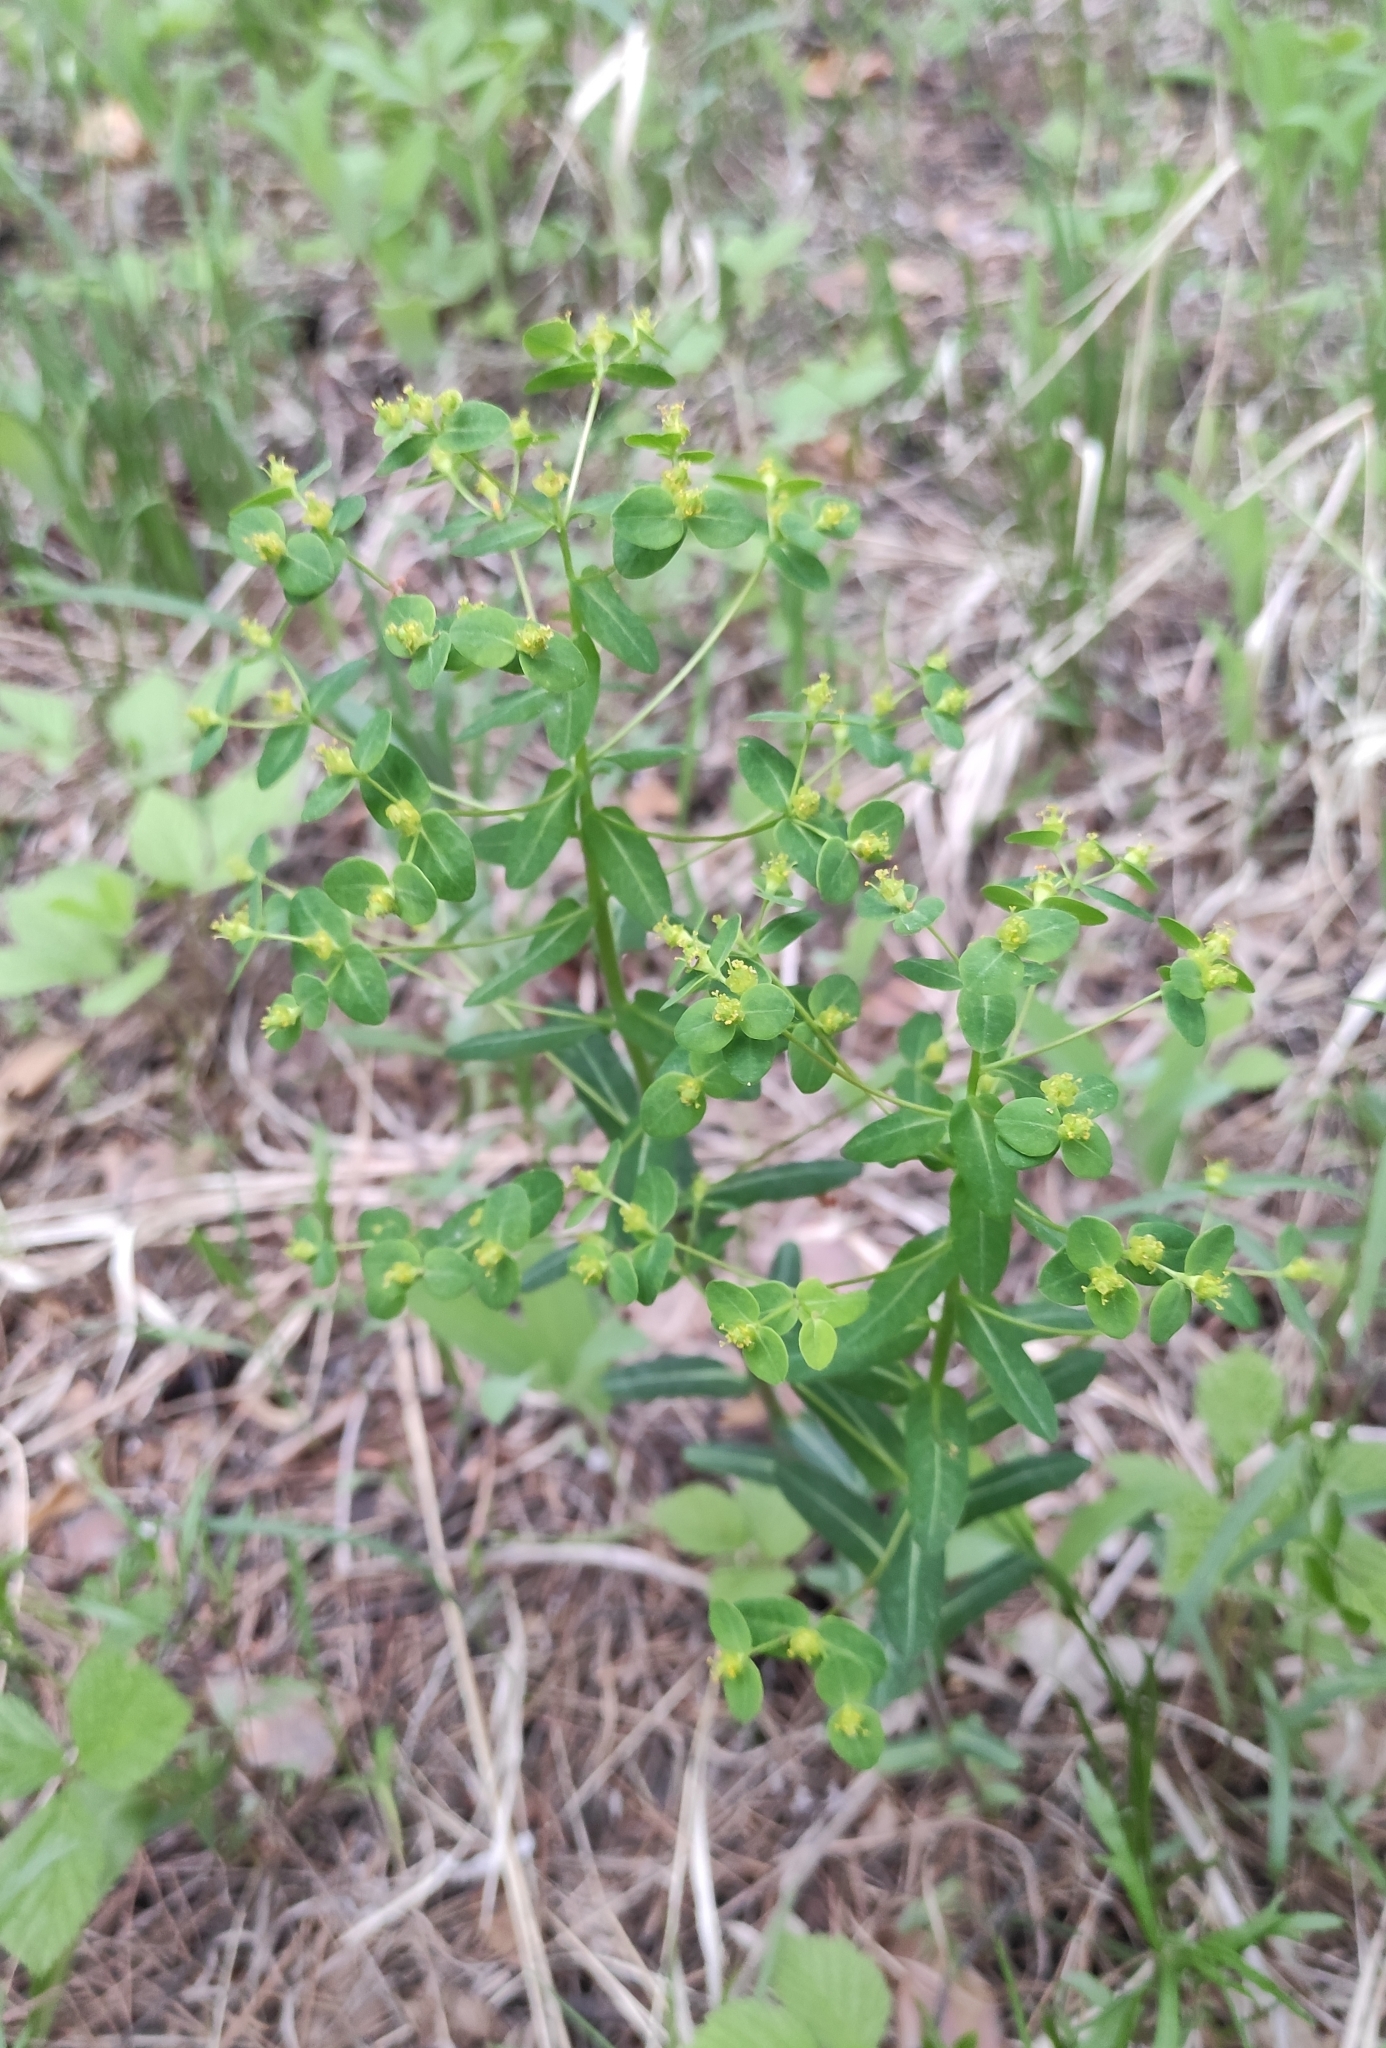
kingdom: Plantae
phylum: Tracheophyta
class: Magnoliopsida
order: Malpighiales
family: Euphorbiaceae
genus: Euphorbia
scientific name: Euphorbia jenisseiensis
